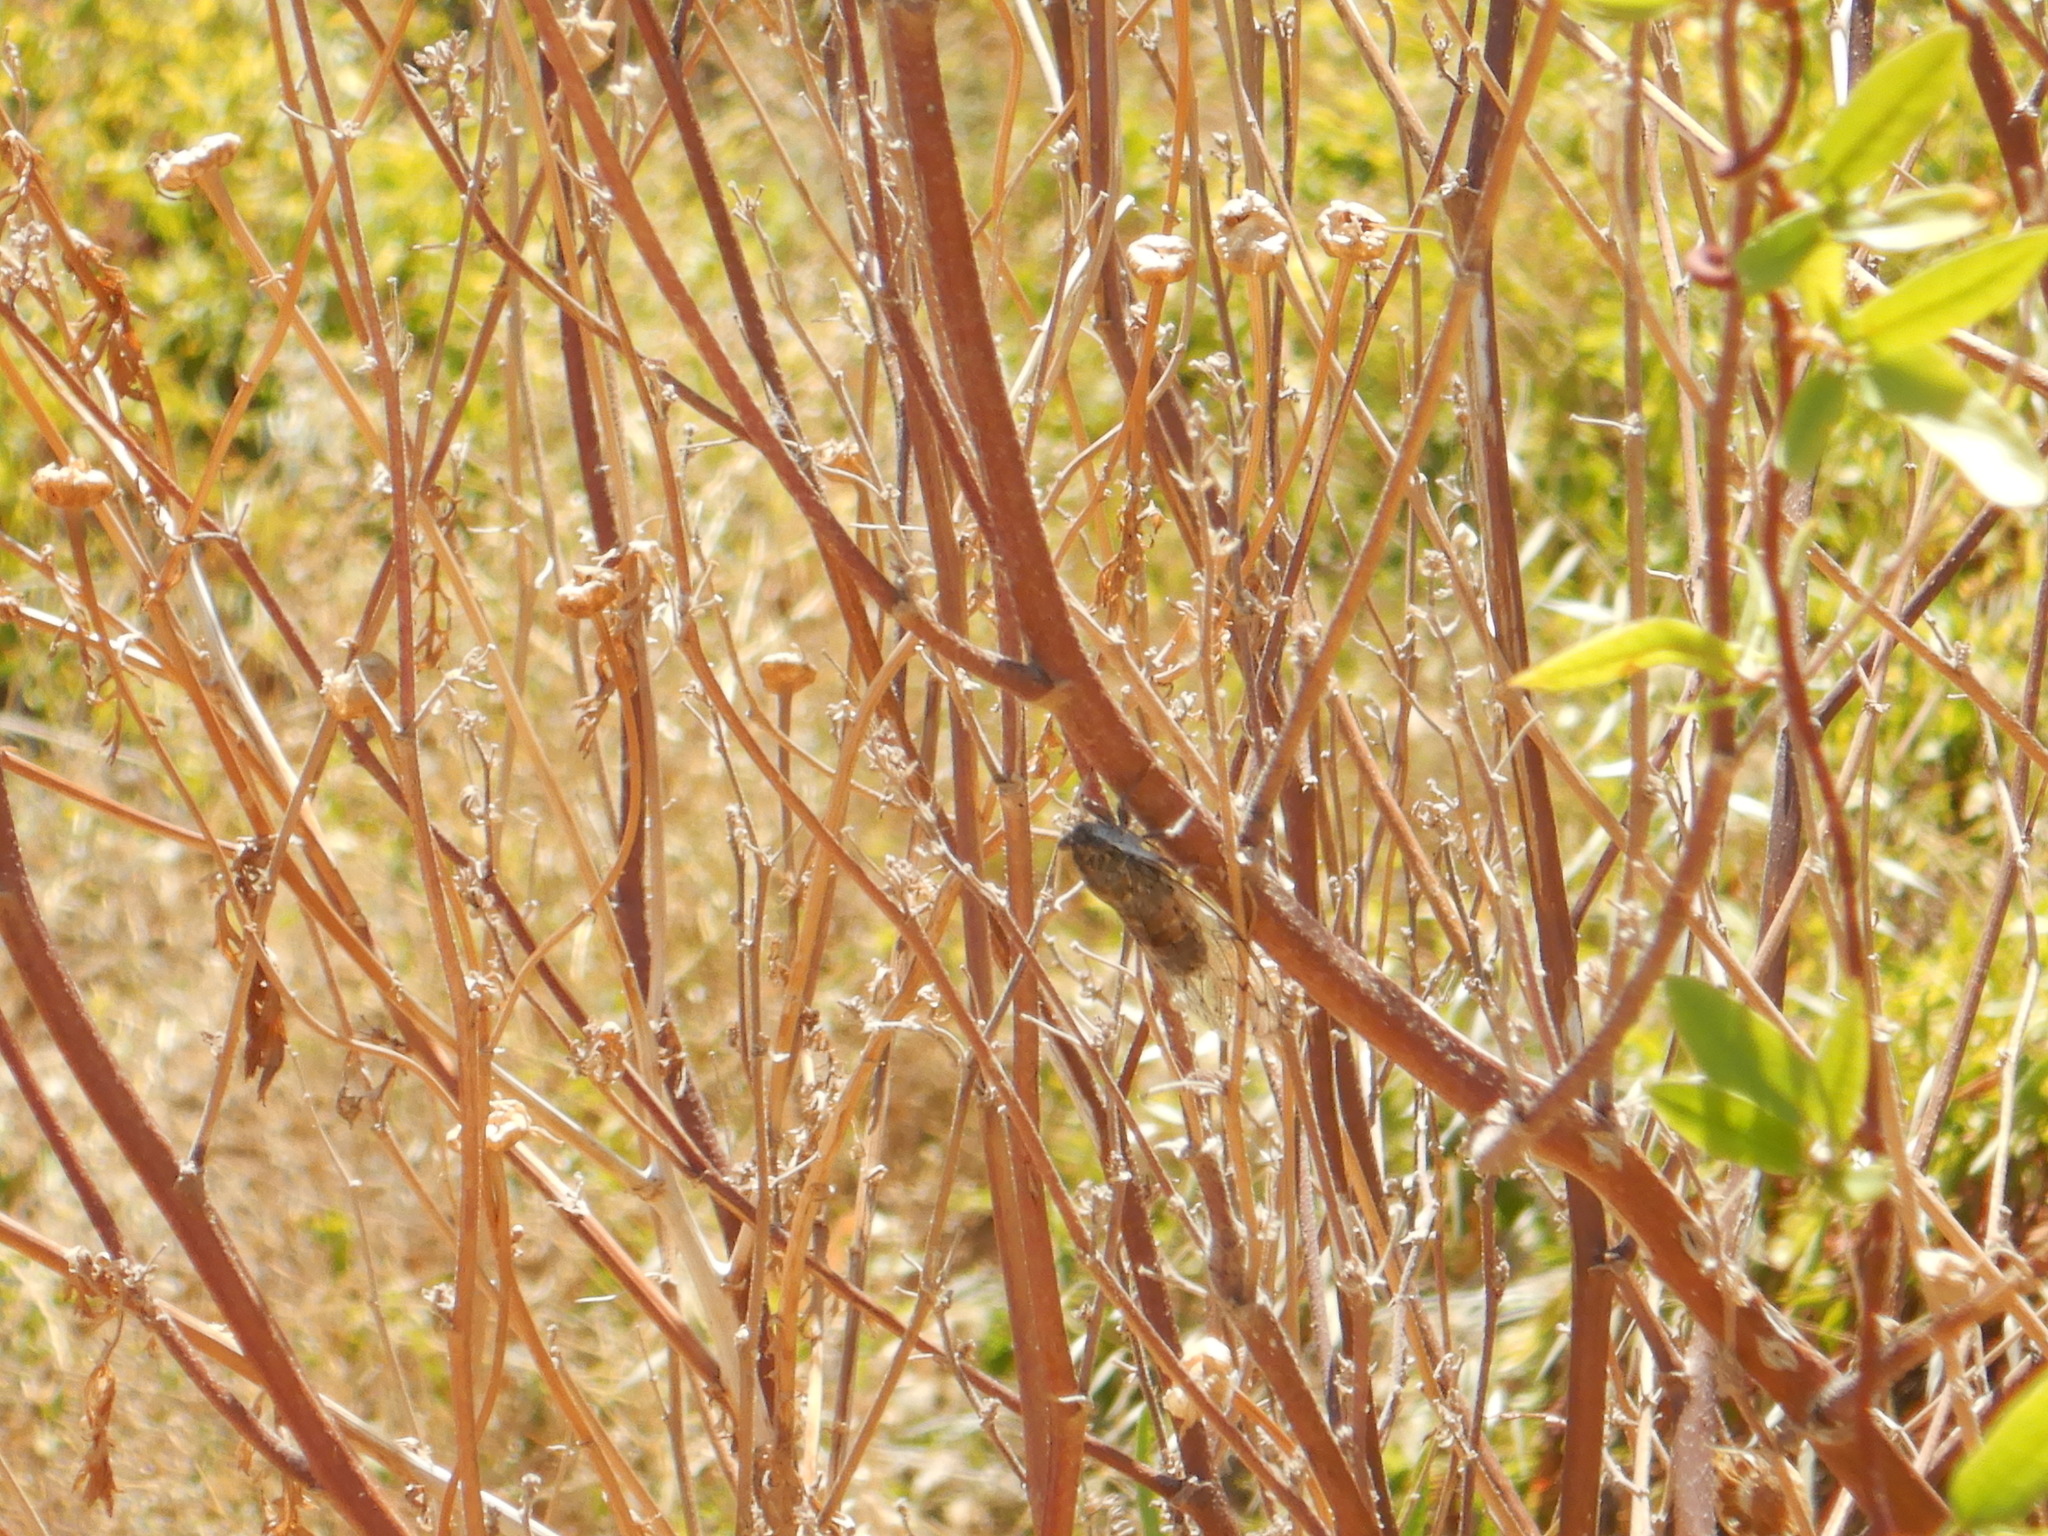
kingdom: Animalia
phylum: Arthropoda
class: Insecta
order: Hemiptera
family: Cicadidae
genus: Cicada
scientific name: Cicada barbara
